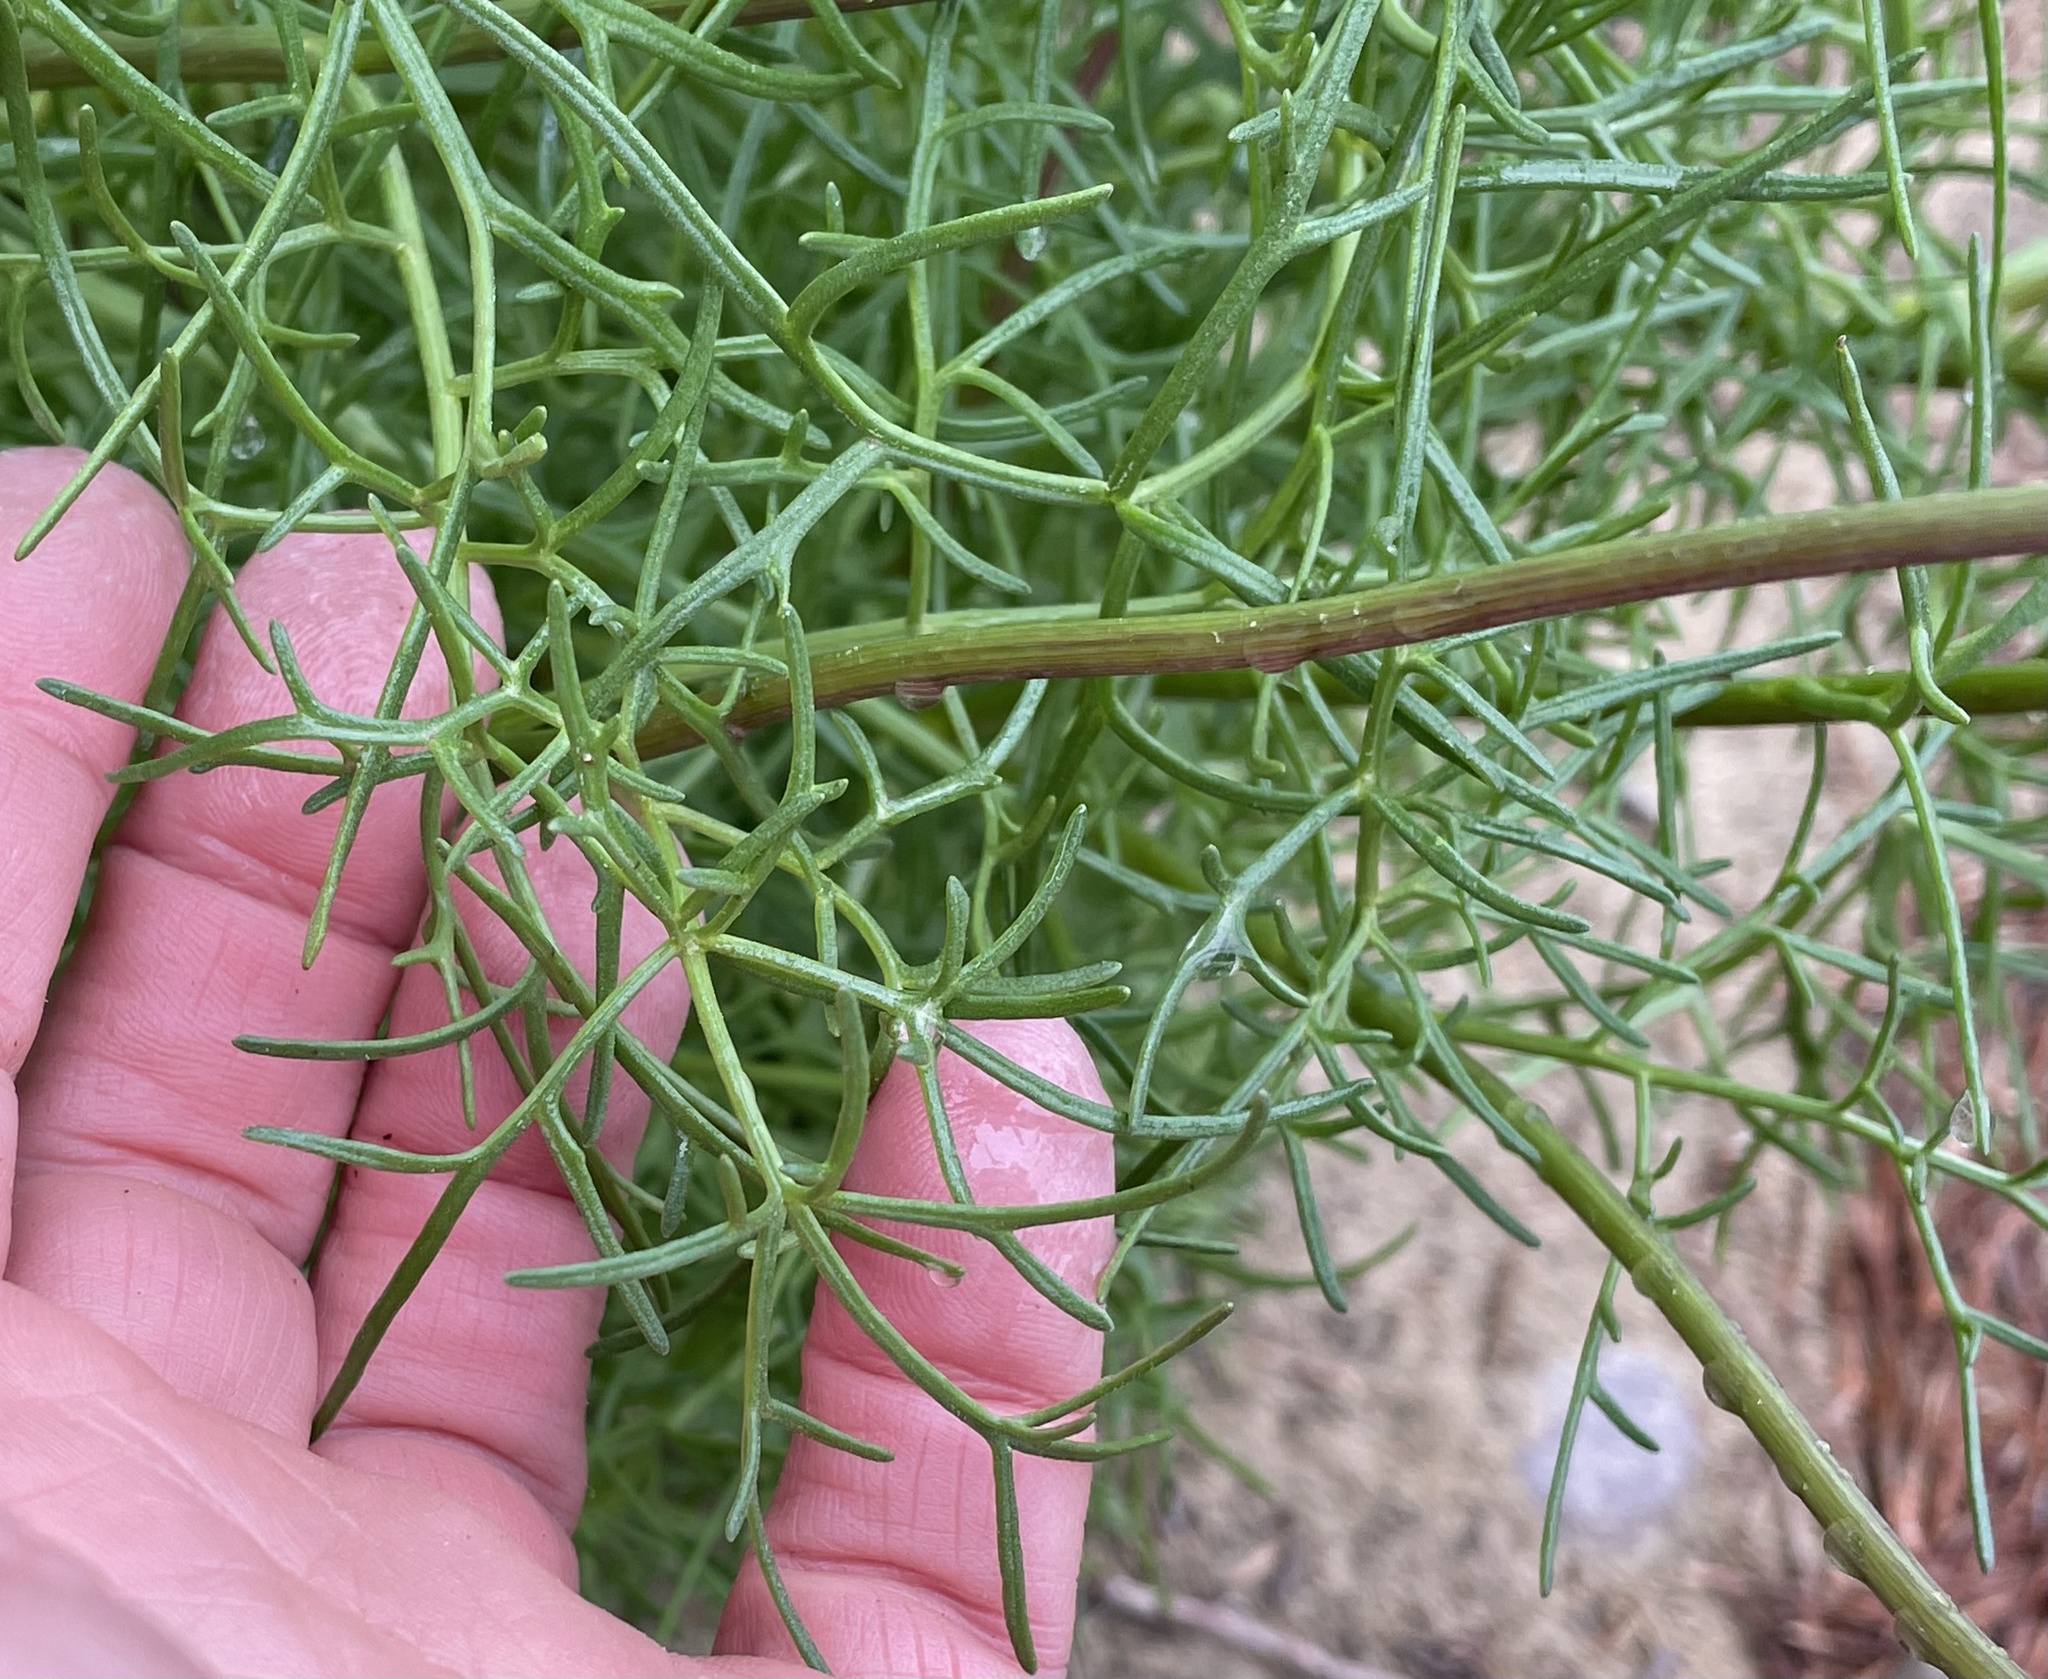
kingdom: Plantae
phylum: Tracheophyta
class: Magnoliopsida
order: Asterales
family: Asteraceae
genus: Coreopsis
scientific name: Coreopsis maritima
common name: Sea-dahlia
